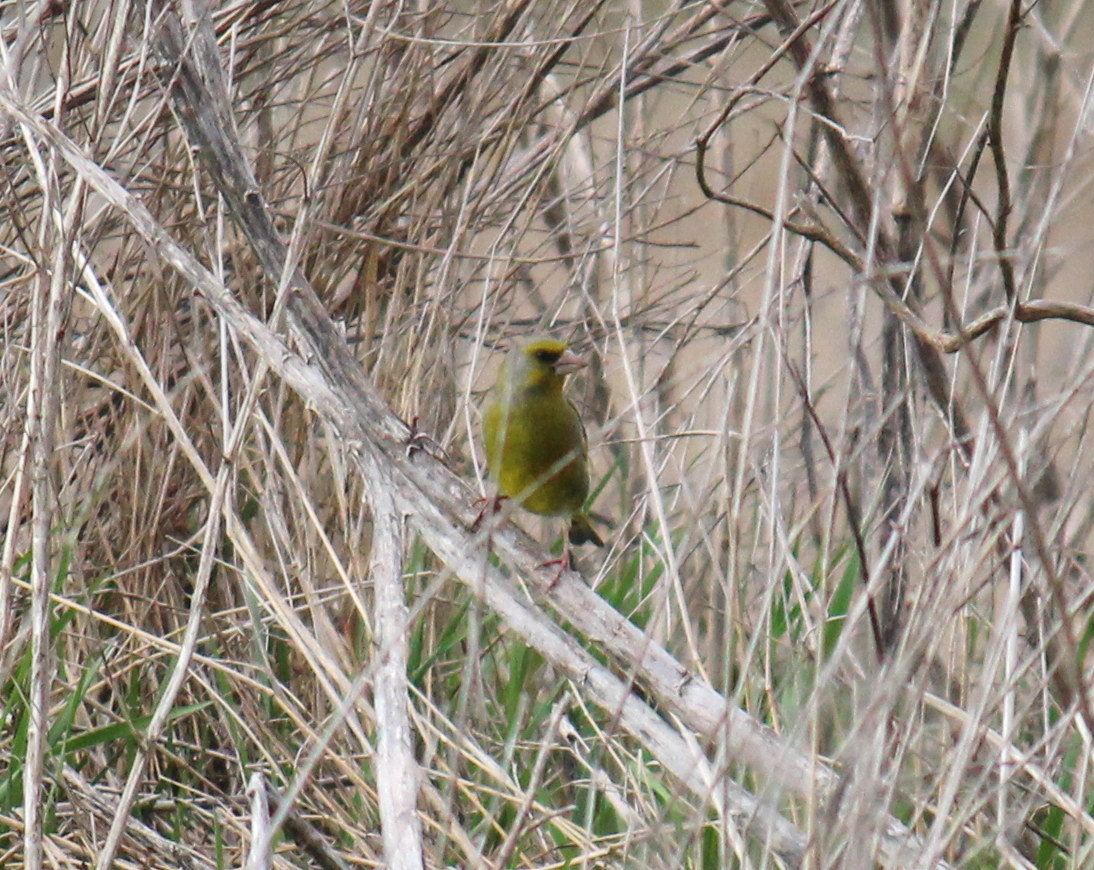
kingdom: Plantae
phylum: Tracheophyta
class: Liliopsida
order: Poales
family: Poaceae
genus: Chloris
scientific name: Chloris chloris
